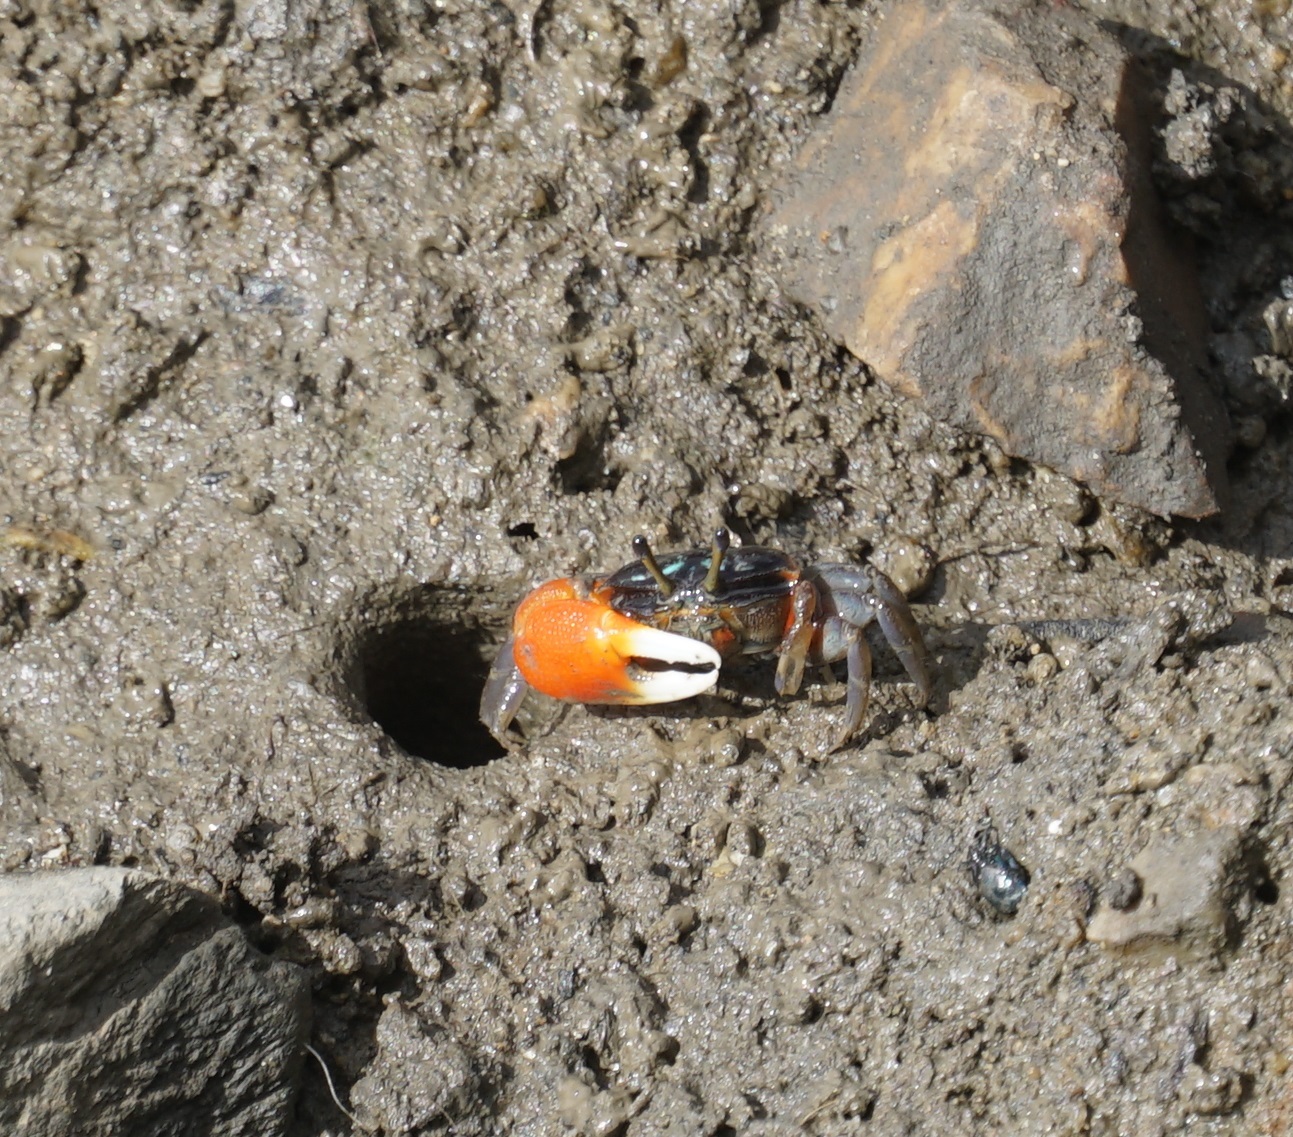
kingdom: Animalia
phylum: Arthropoda
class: Malacostraca
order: Decapoda
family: Ocypodidae
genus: Tubuca
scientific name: Tubuca coarctata
